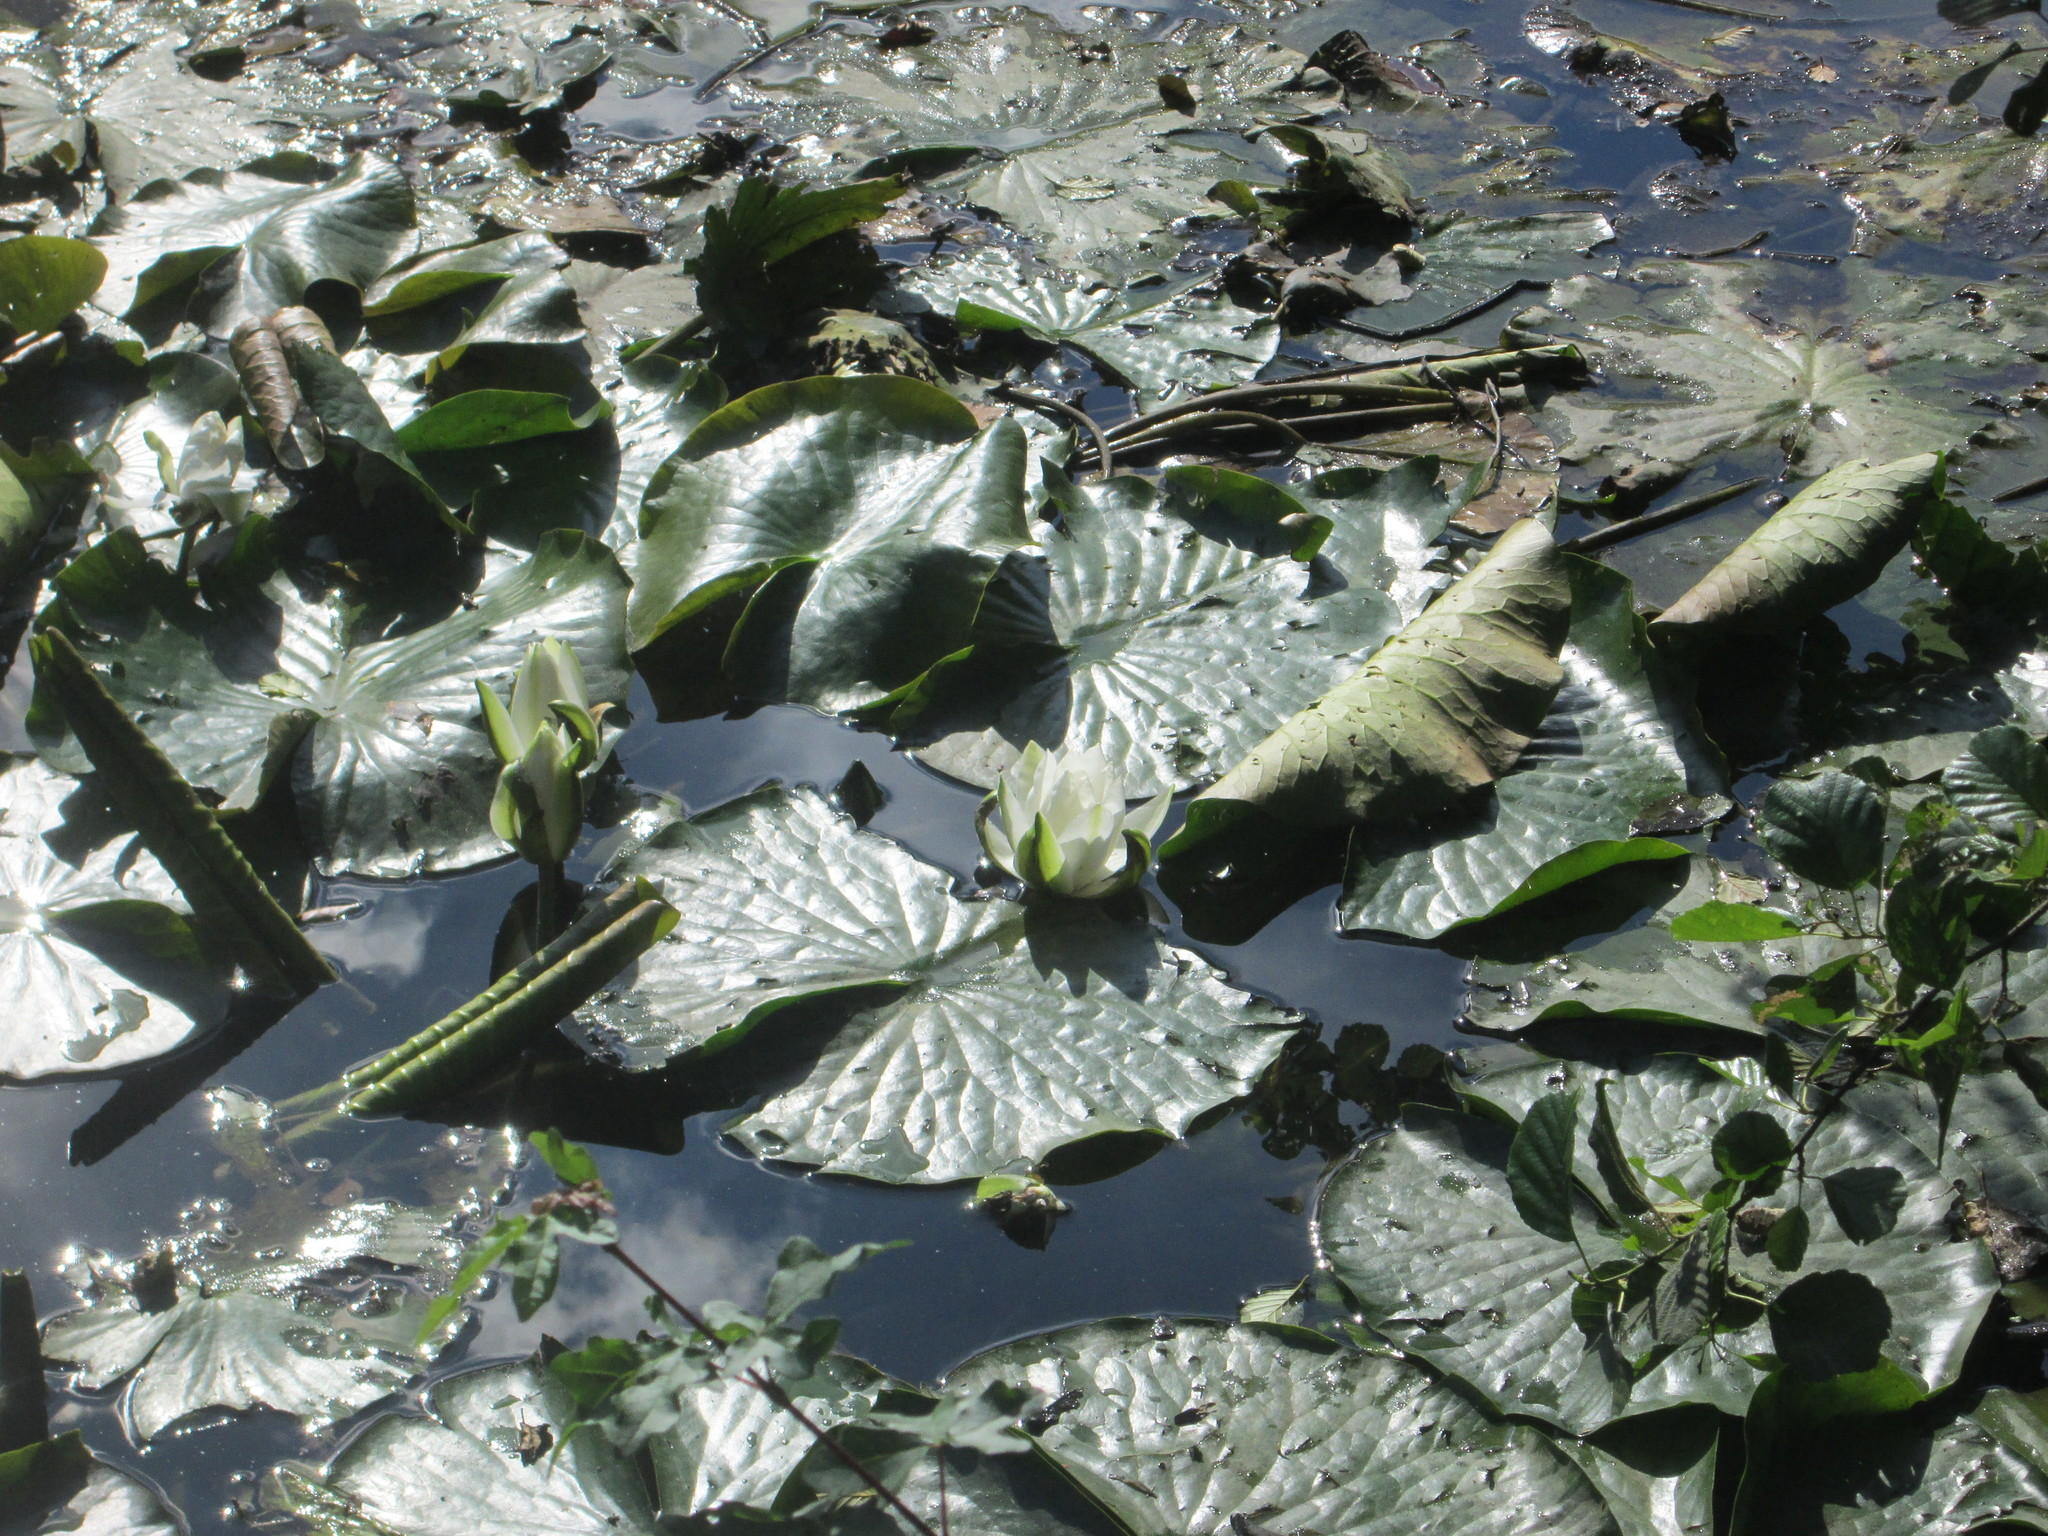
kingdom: Plantae
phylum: Tracheophyta
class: Magnoliopsida
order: Nymphaeales
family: Nymphaeaceae
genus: Nymphaea
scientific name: Nymphaea alba
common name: White water-lily
